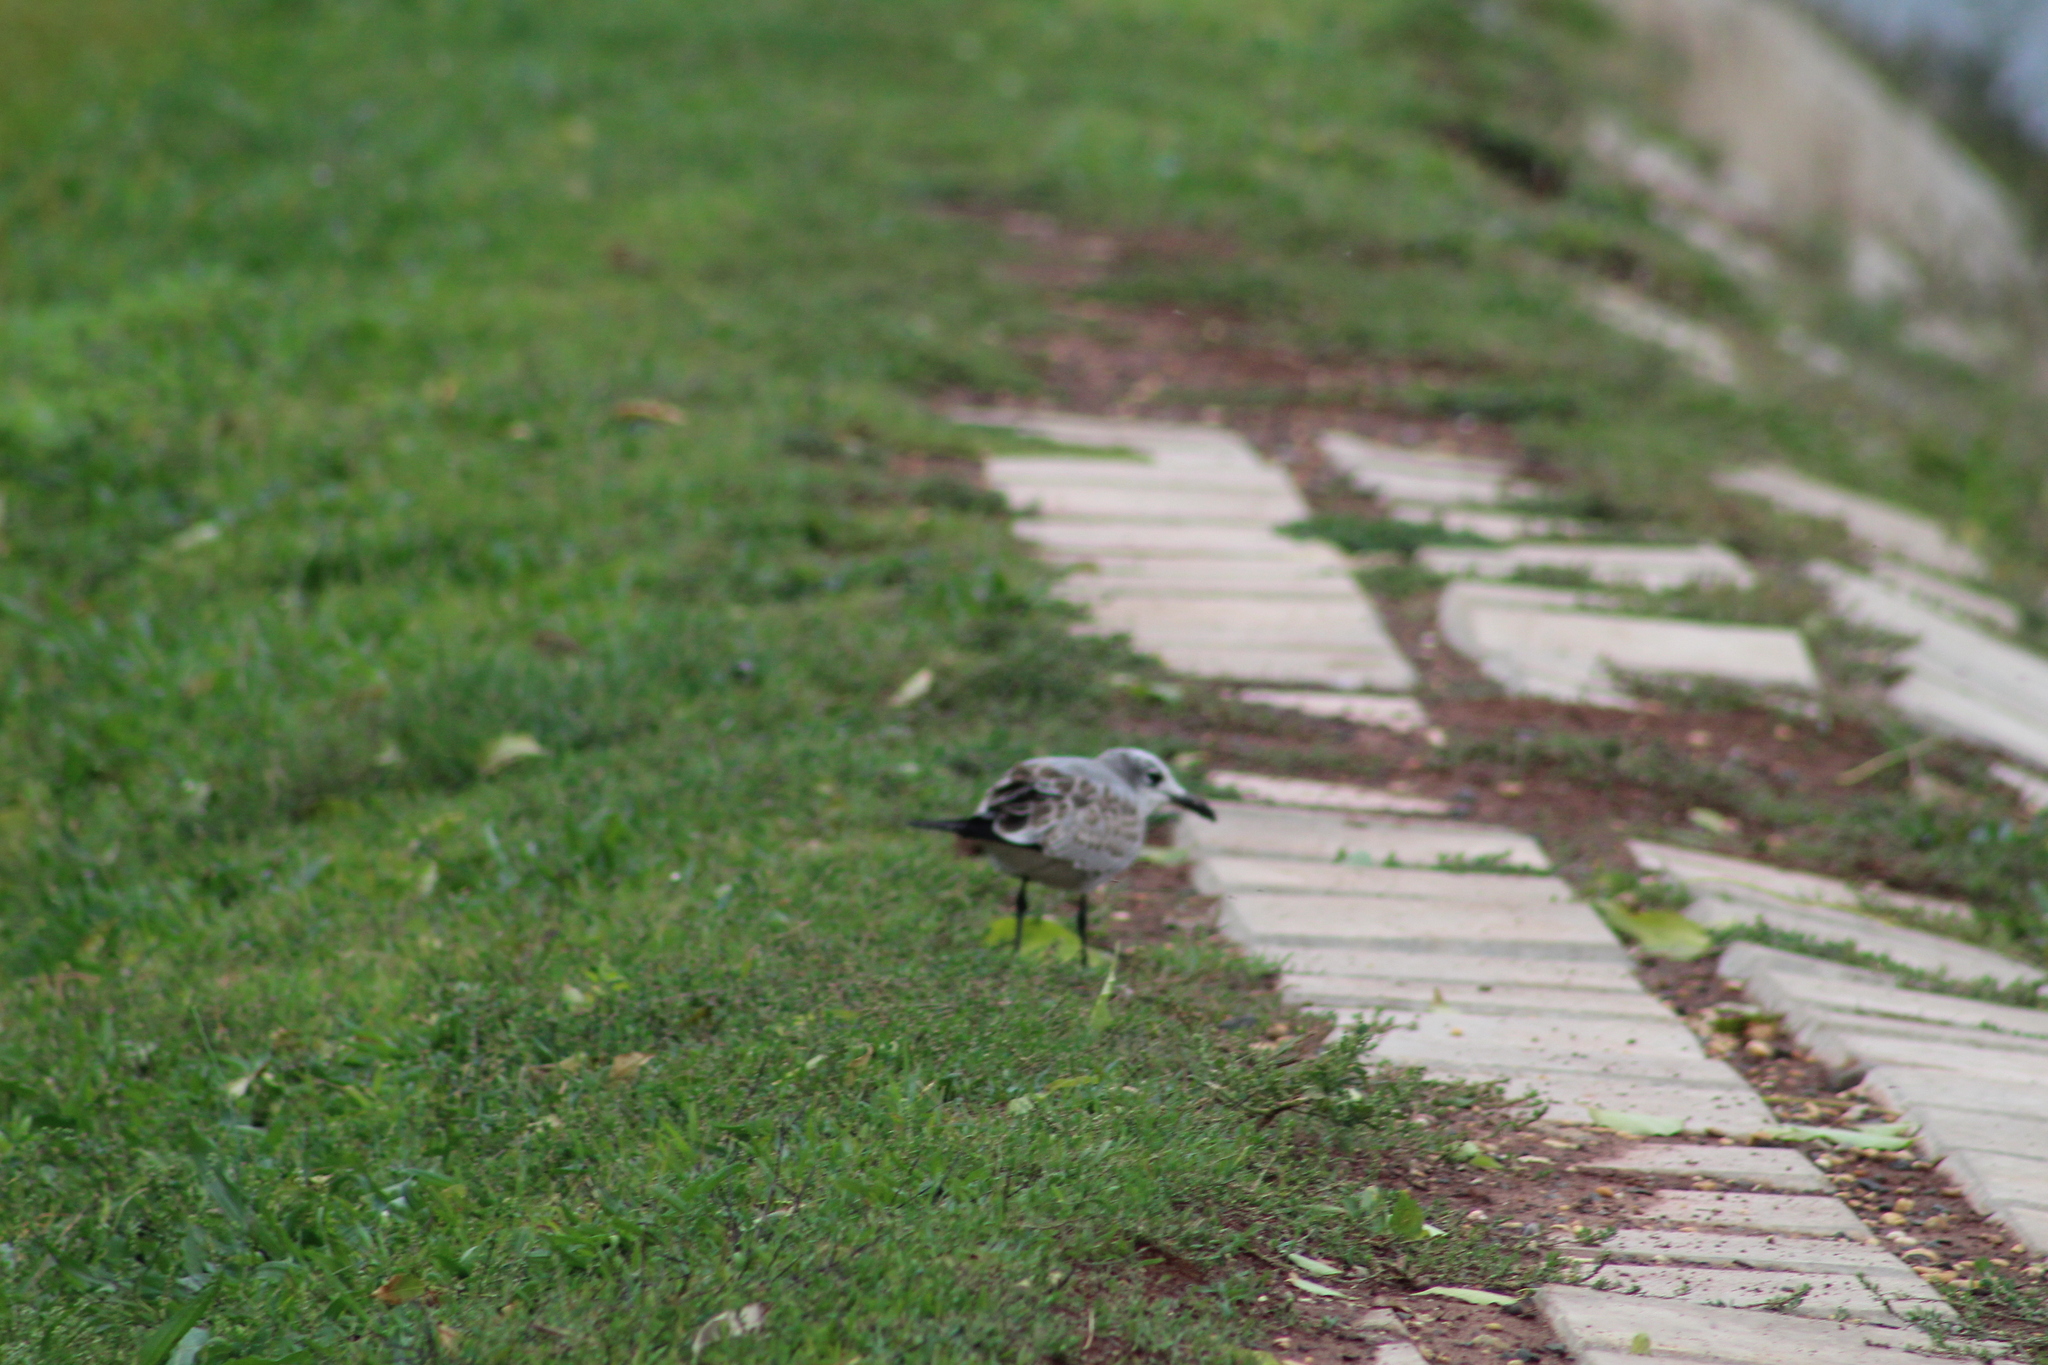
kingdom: Animalia
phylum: Chordata
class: Aves
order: Charadriiformes
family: Laridae
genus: Leucophaeus
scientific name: Leucophaeus atricilla
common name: Laughing gull
